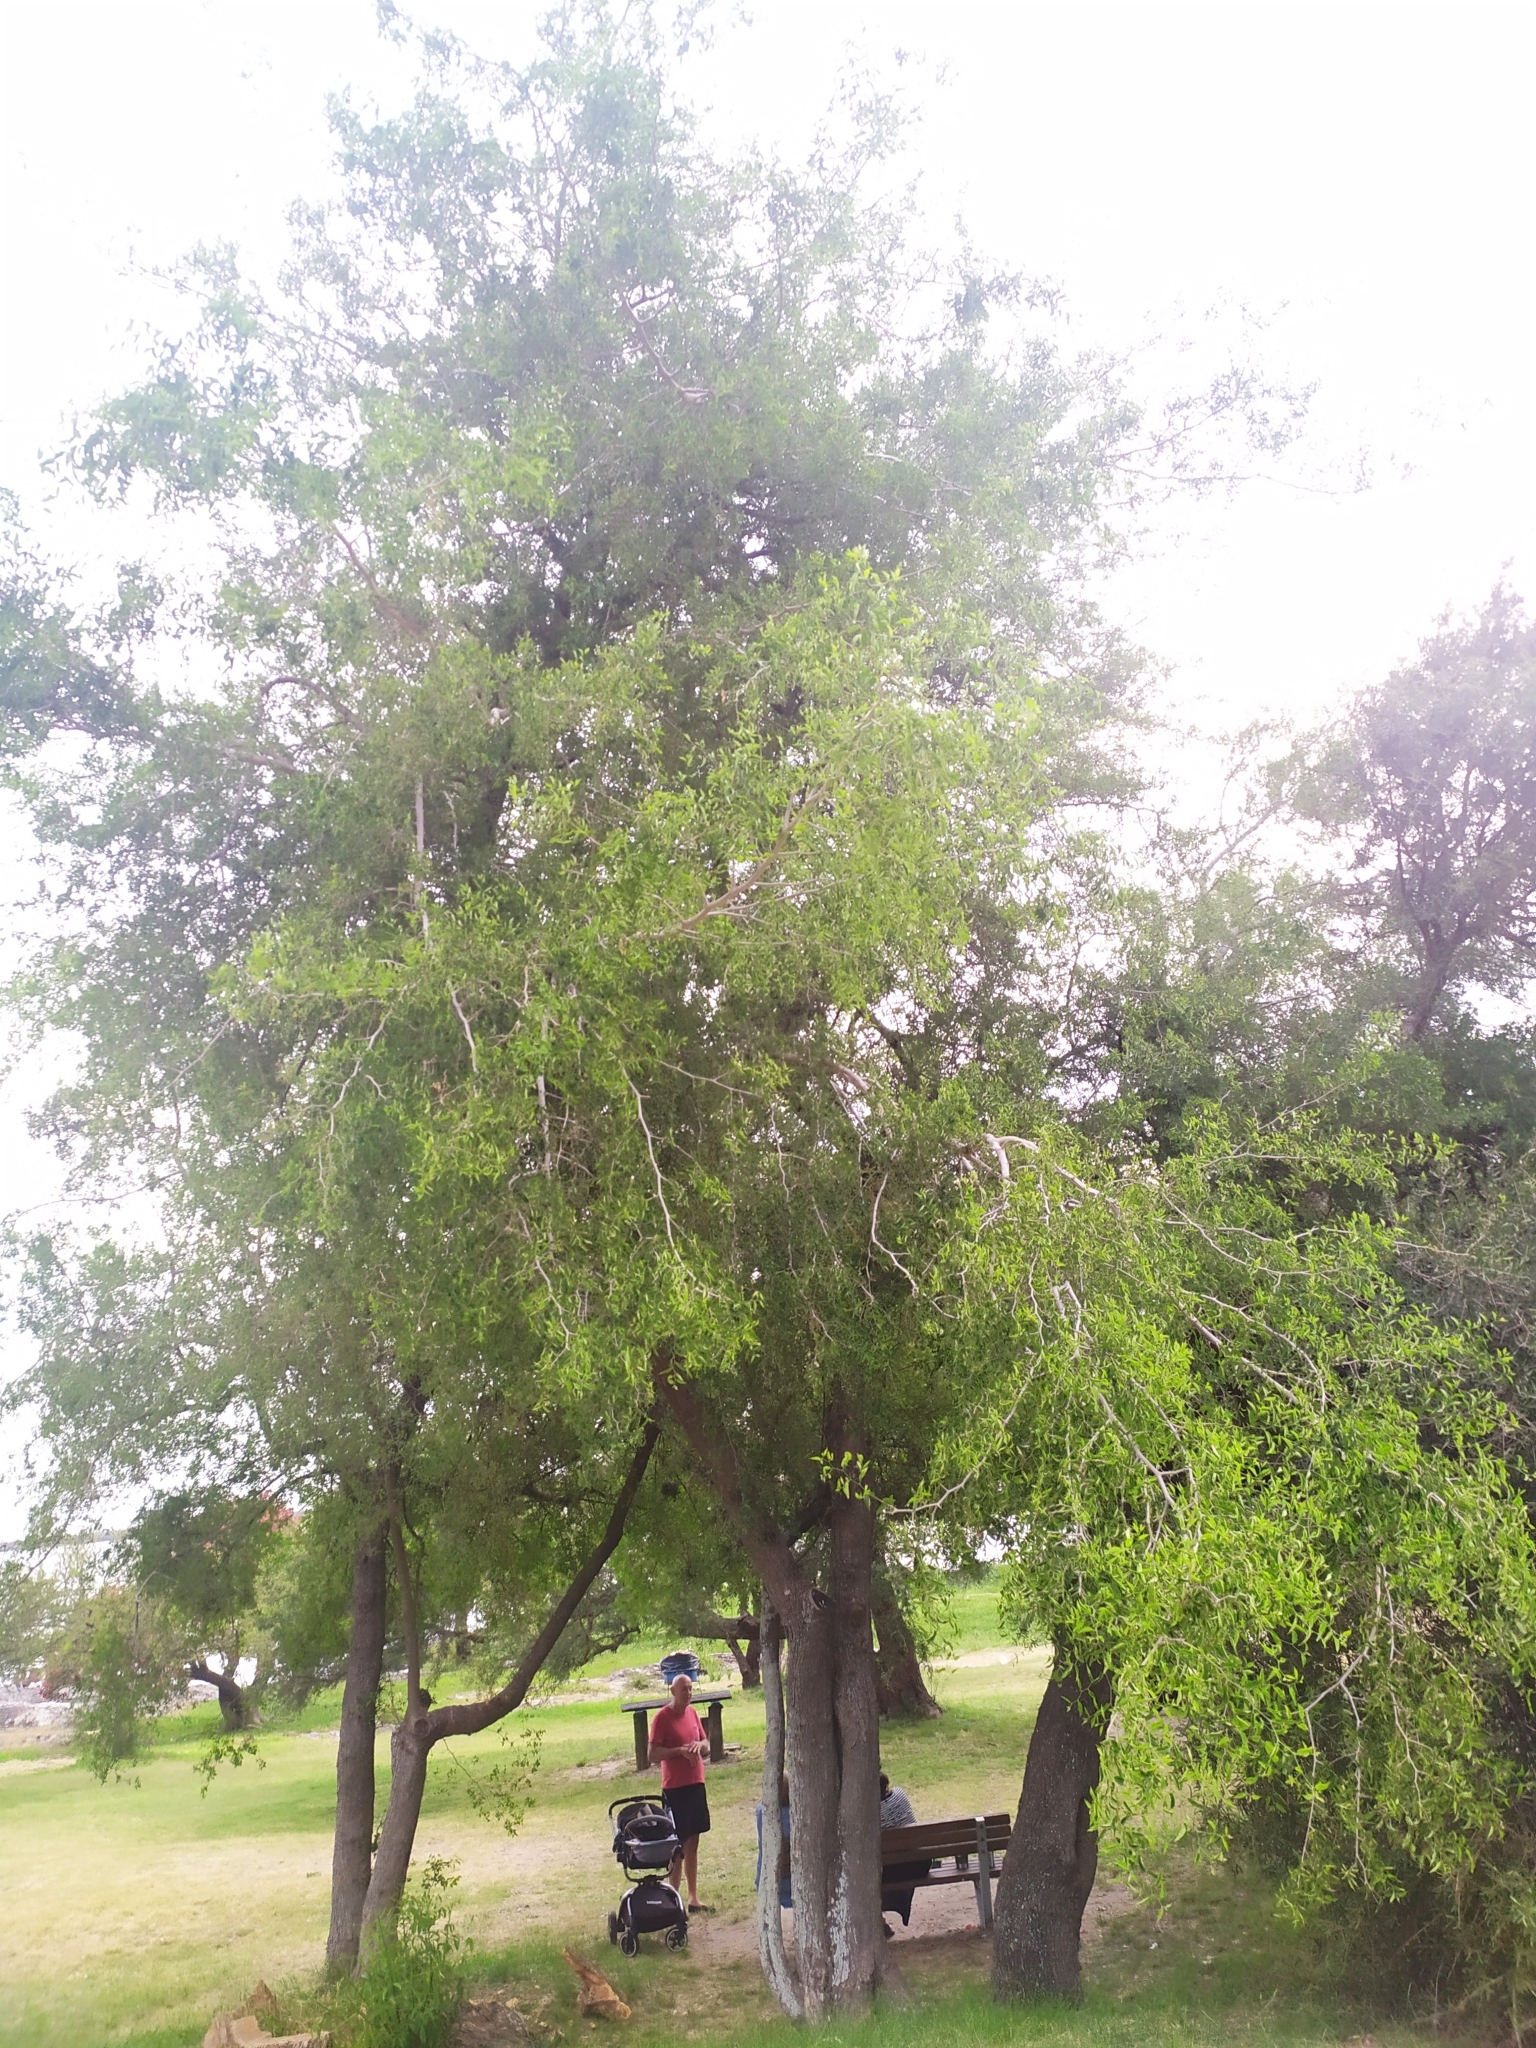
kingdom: Plantae
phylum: Tracheophyta
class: Magnoliopsida
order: Rosales
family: Cannabaceae
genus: Celtis
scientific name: Celtis tala
